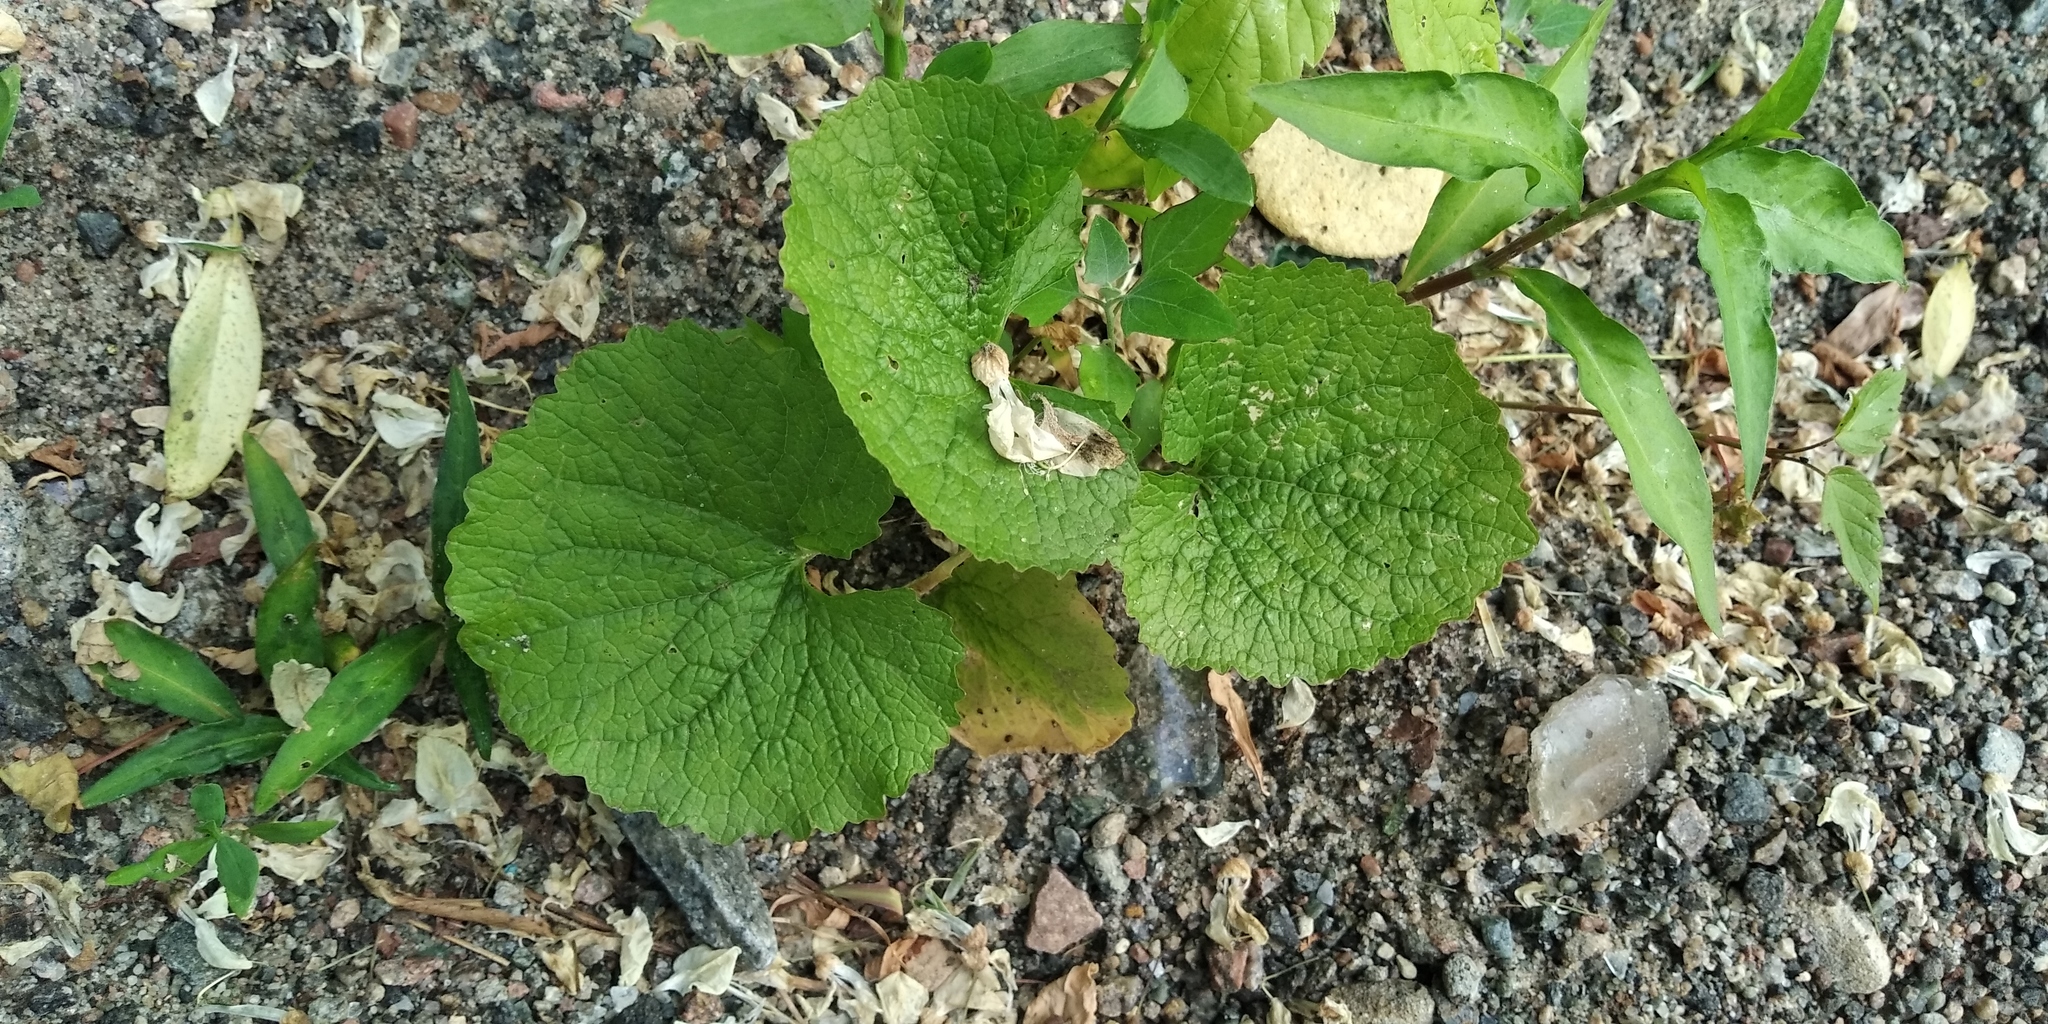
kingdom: Plantae
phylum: Tracheophyta
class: Magnoliopsida
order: Brassicales
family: Brassicaceae
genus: Alliaria
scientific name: Alliaria petiolata
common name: Garlic mustard
